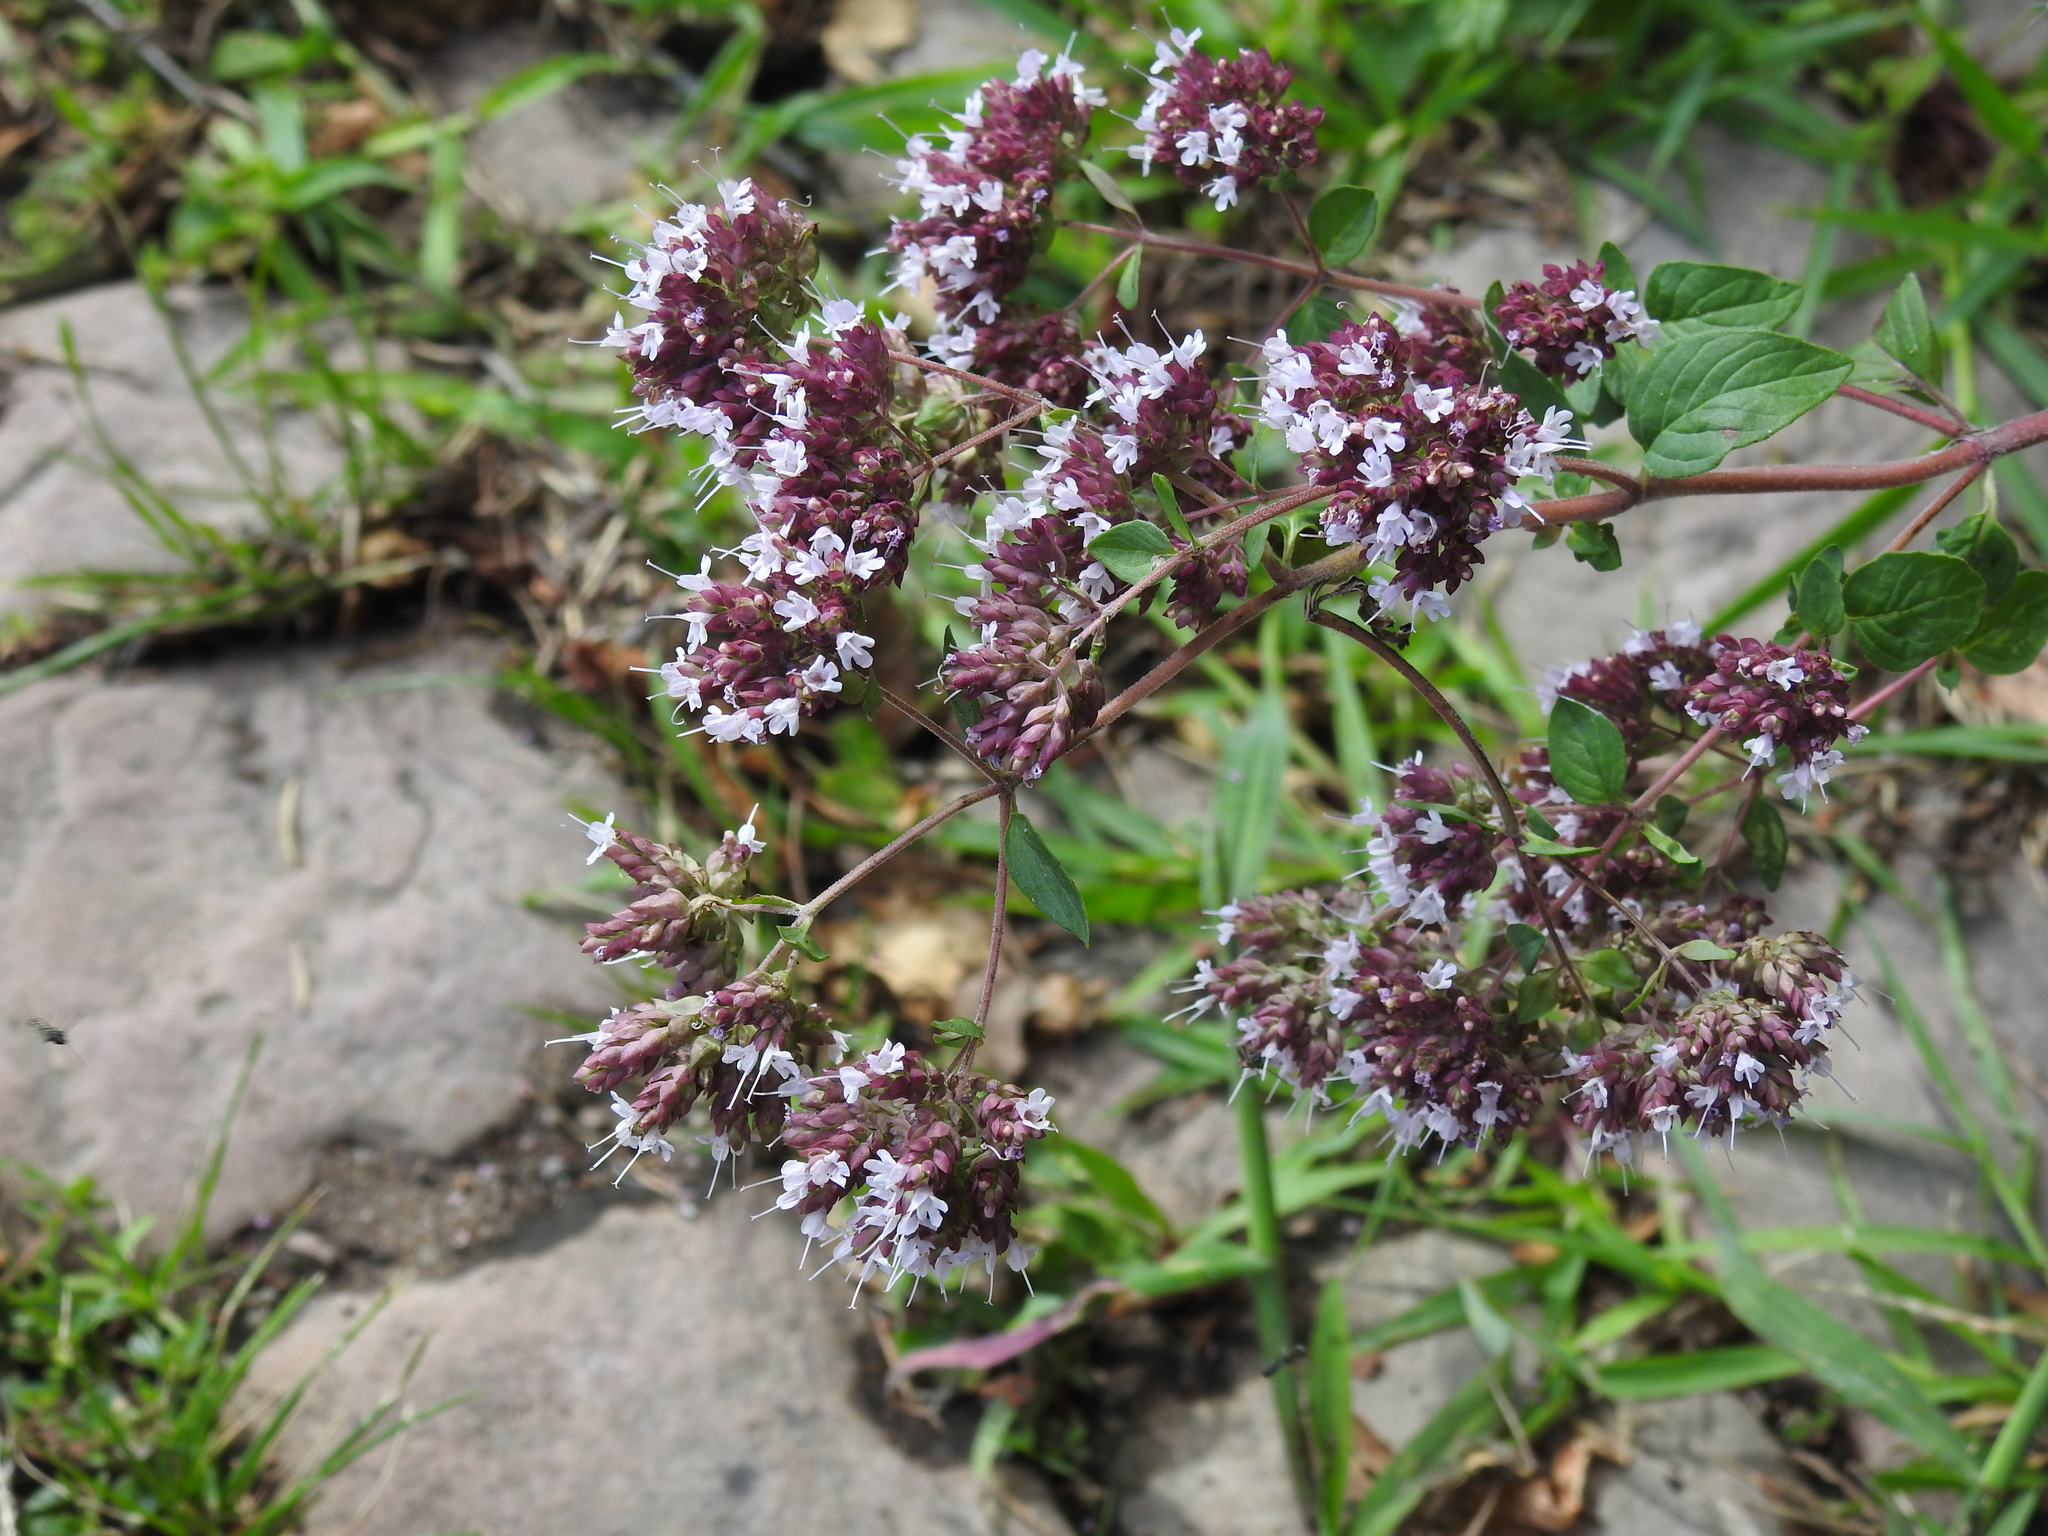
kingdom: Plantae
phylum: Tracheophyta
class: Magnoliopsida
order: Lamiales
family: Lamiaceae
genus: Origanum
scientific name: Origanum vulgare
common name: Wild marjoram
